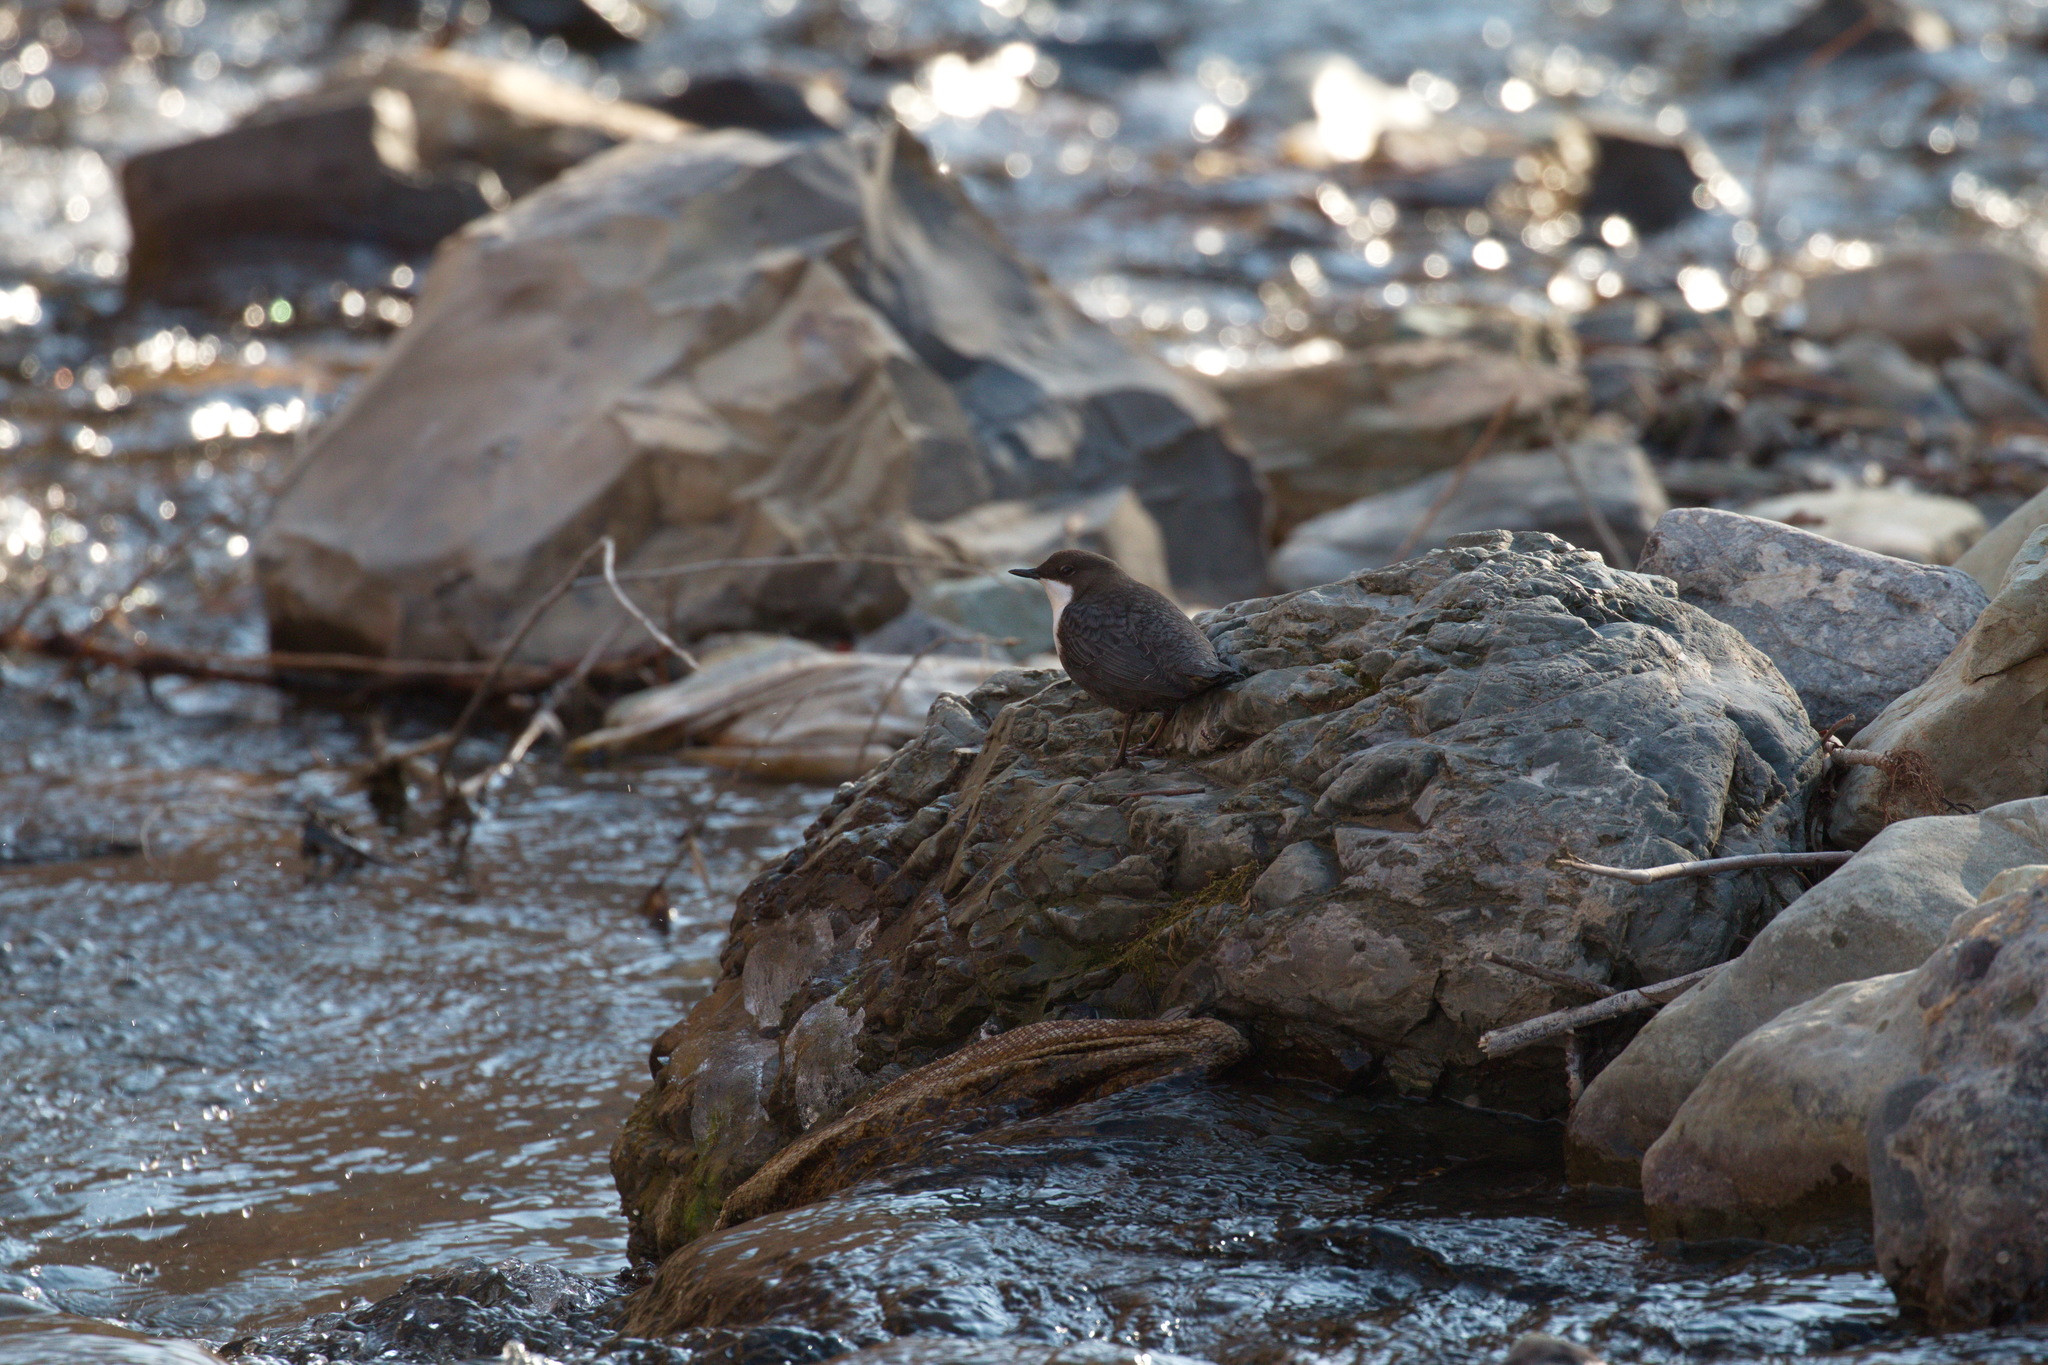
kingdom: Animalia
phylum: Chordata
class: Aves
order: Passeriformes
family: Cinclidae
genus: Cinclus
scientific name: Cinclus cinclus
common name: White-throated dipper
